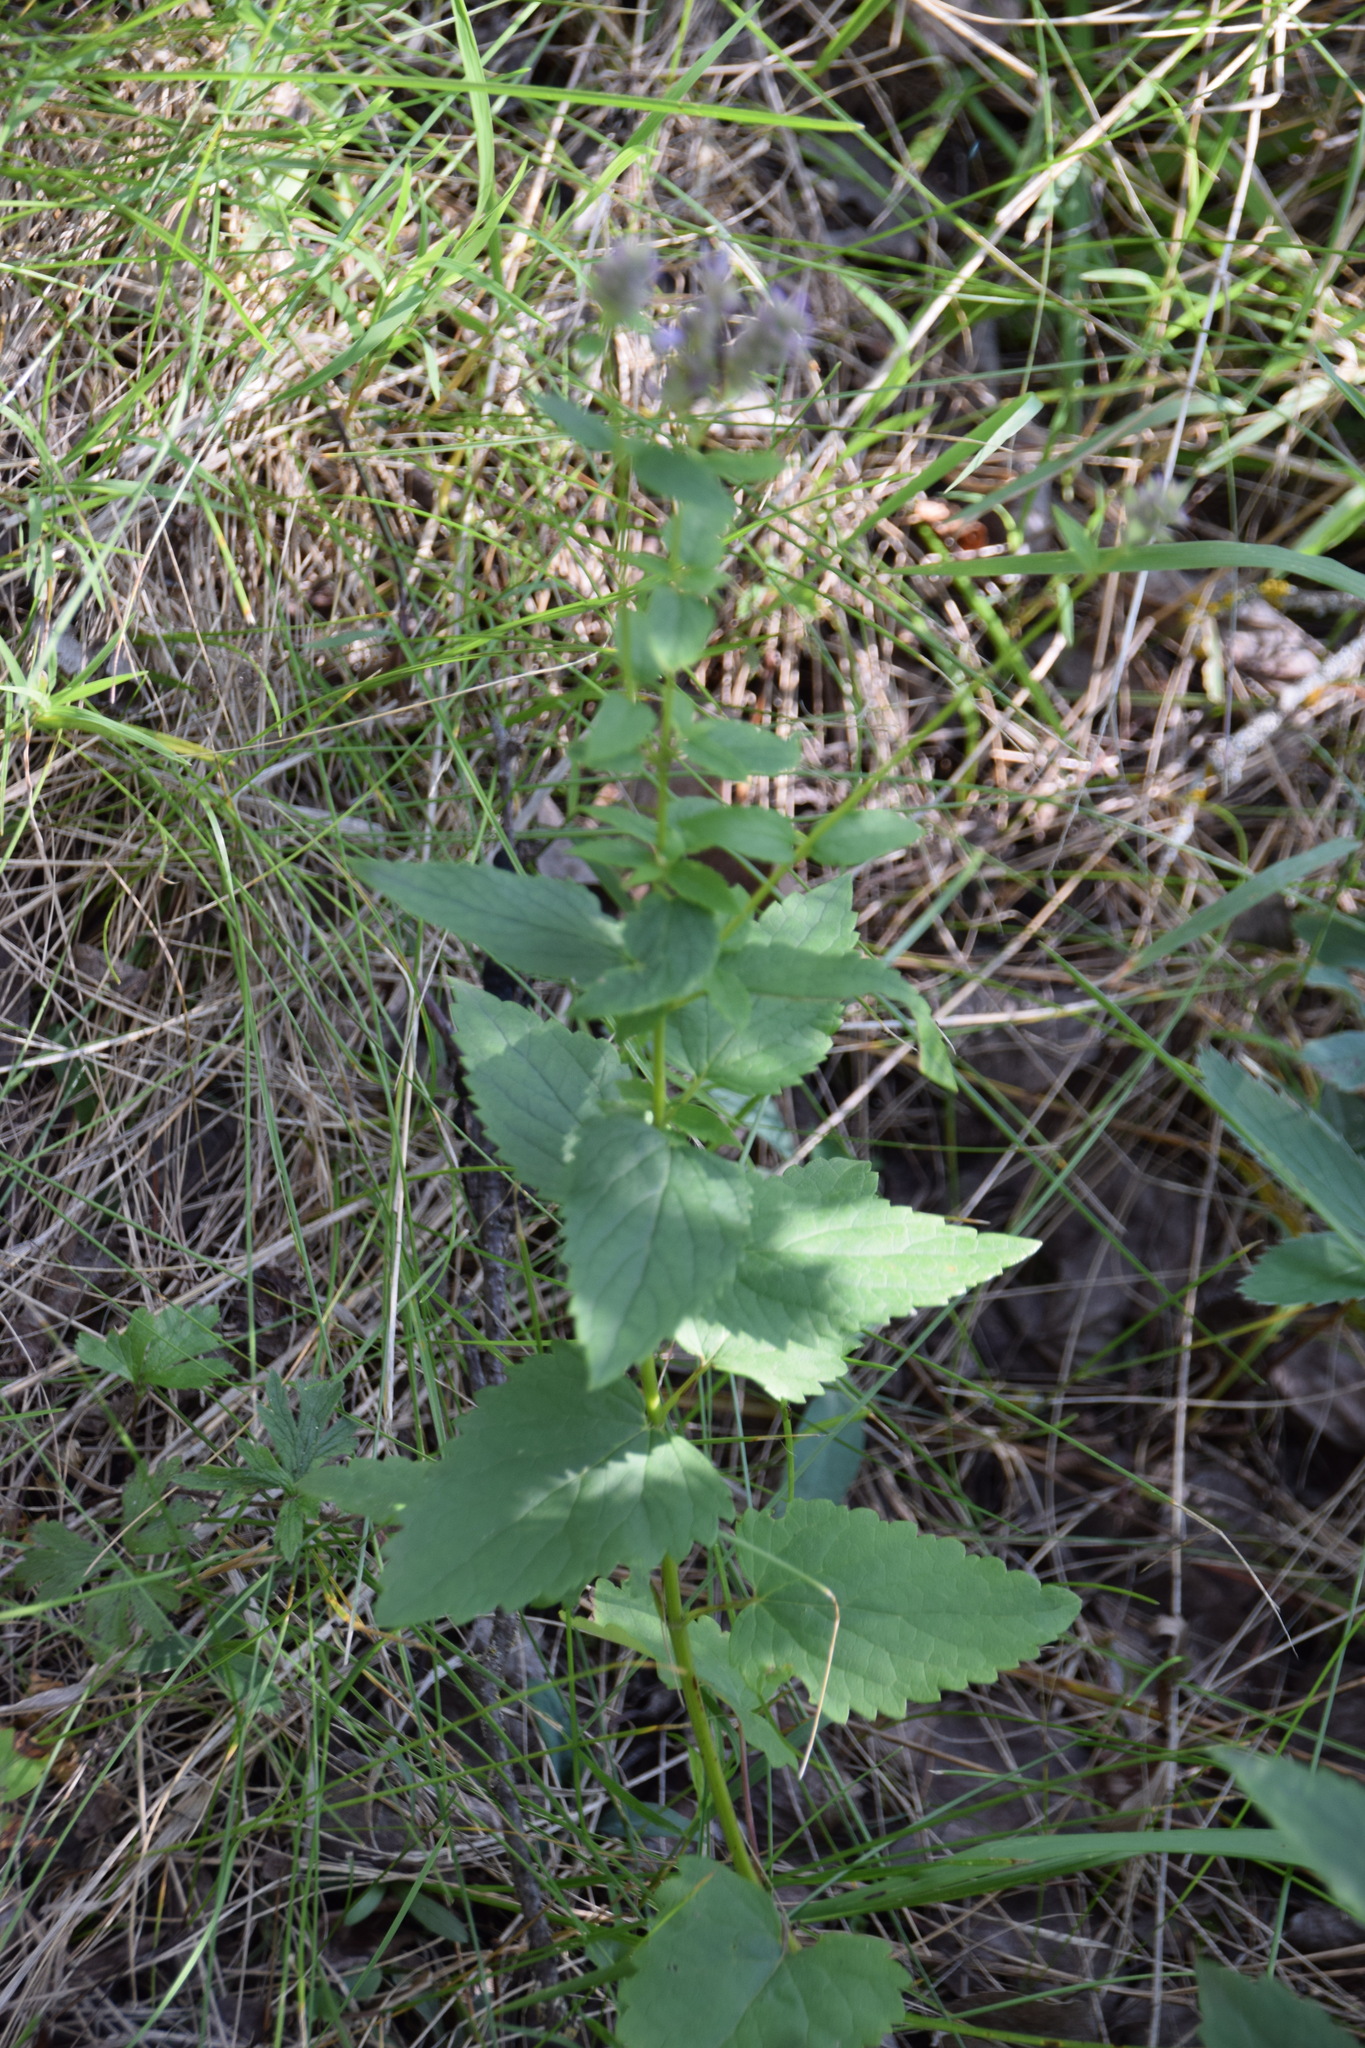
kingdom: Plantae
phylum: Tracheophyta
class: Magnoliopsida
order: Lamiales
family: Lamiaceae
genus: Agastache
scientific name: Agastache foeniculum
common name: Anise hyssop
